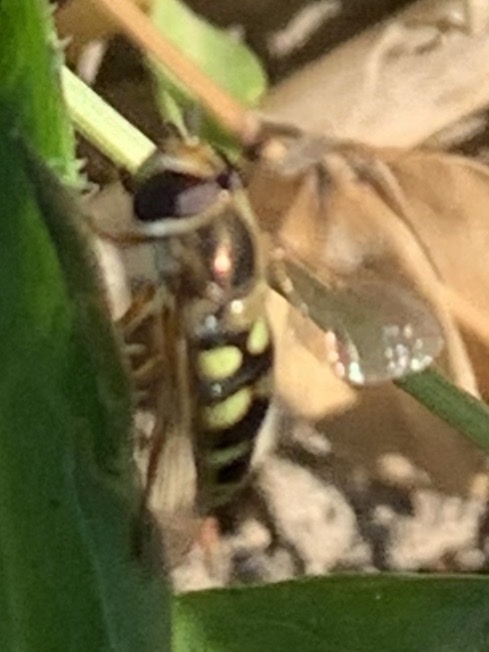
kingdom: Animalia
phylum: Arthropoda
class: Insecta
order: Diptera
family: Syrphidae
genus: Eupeodes
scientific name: Eupeodes fumipennis
